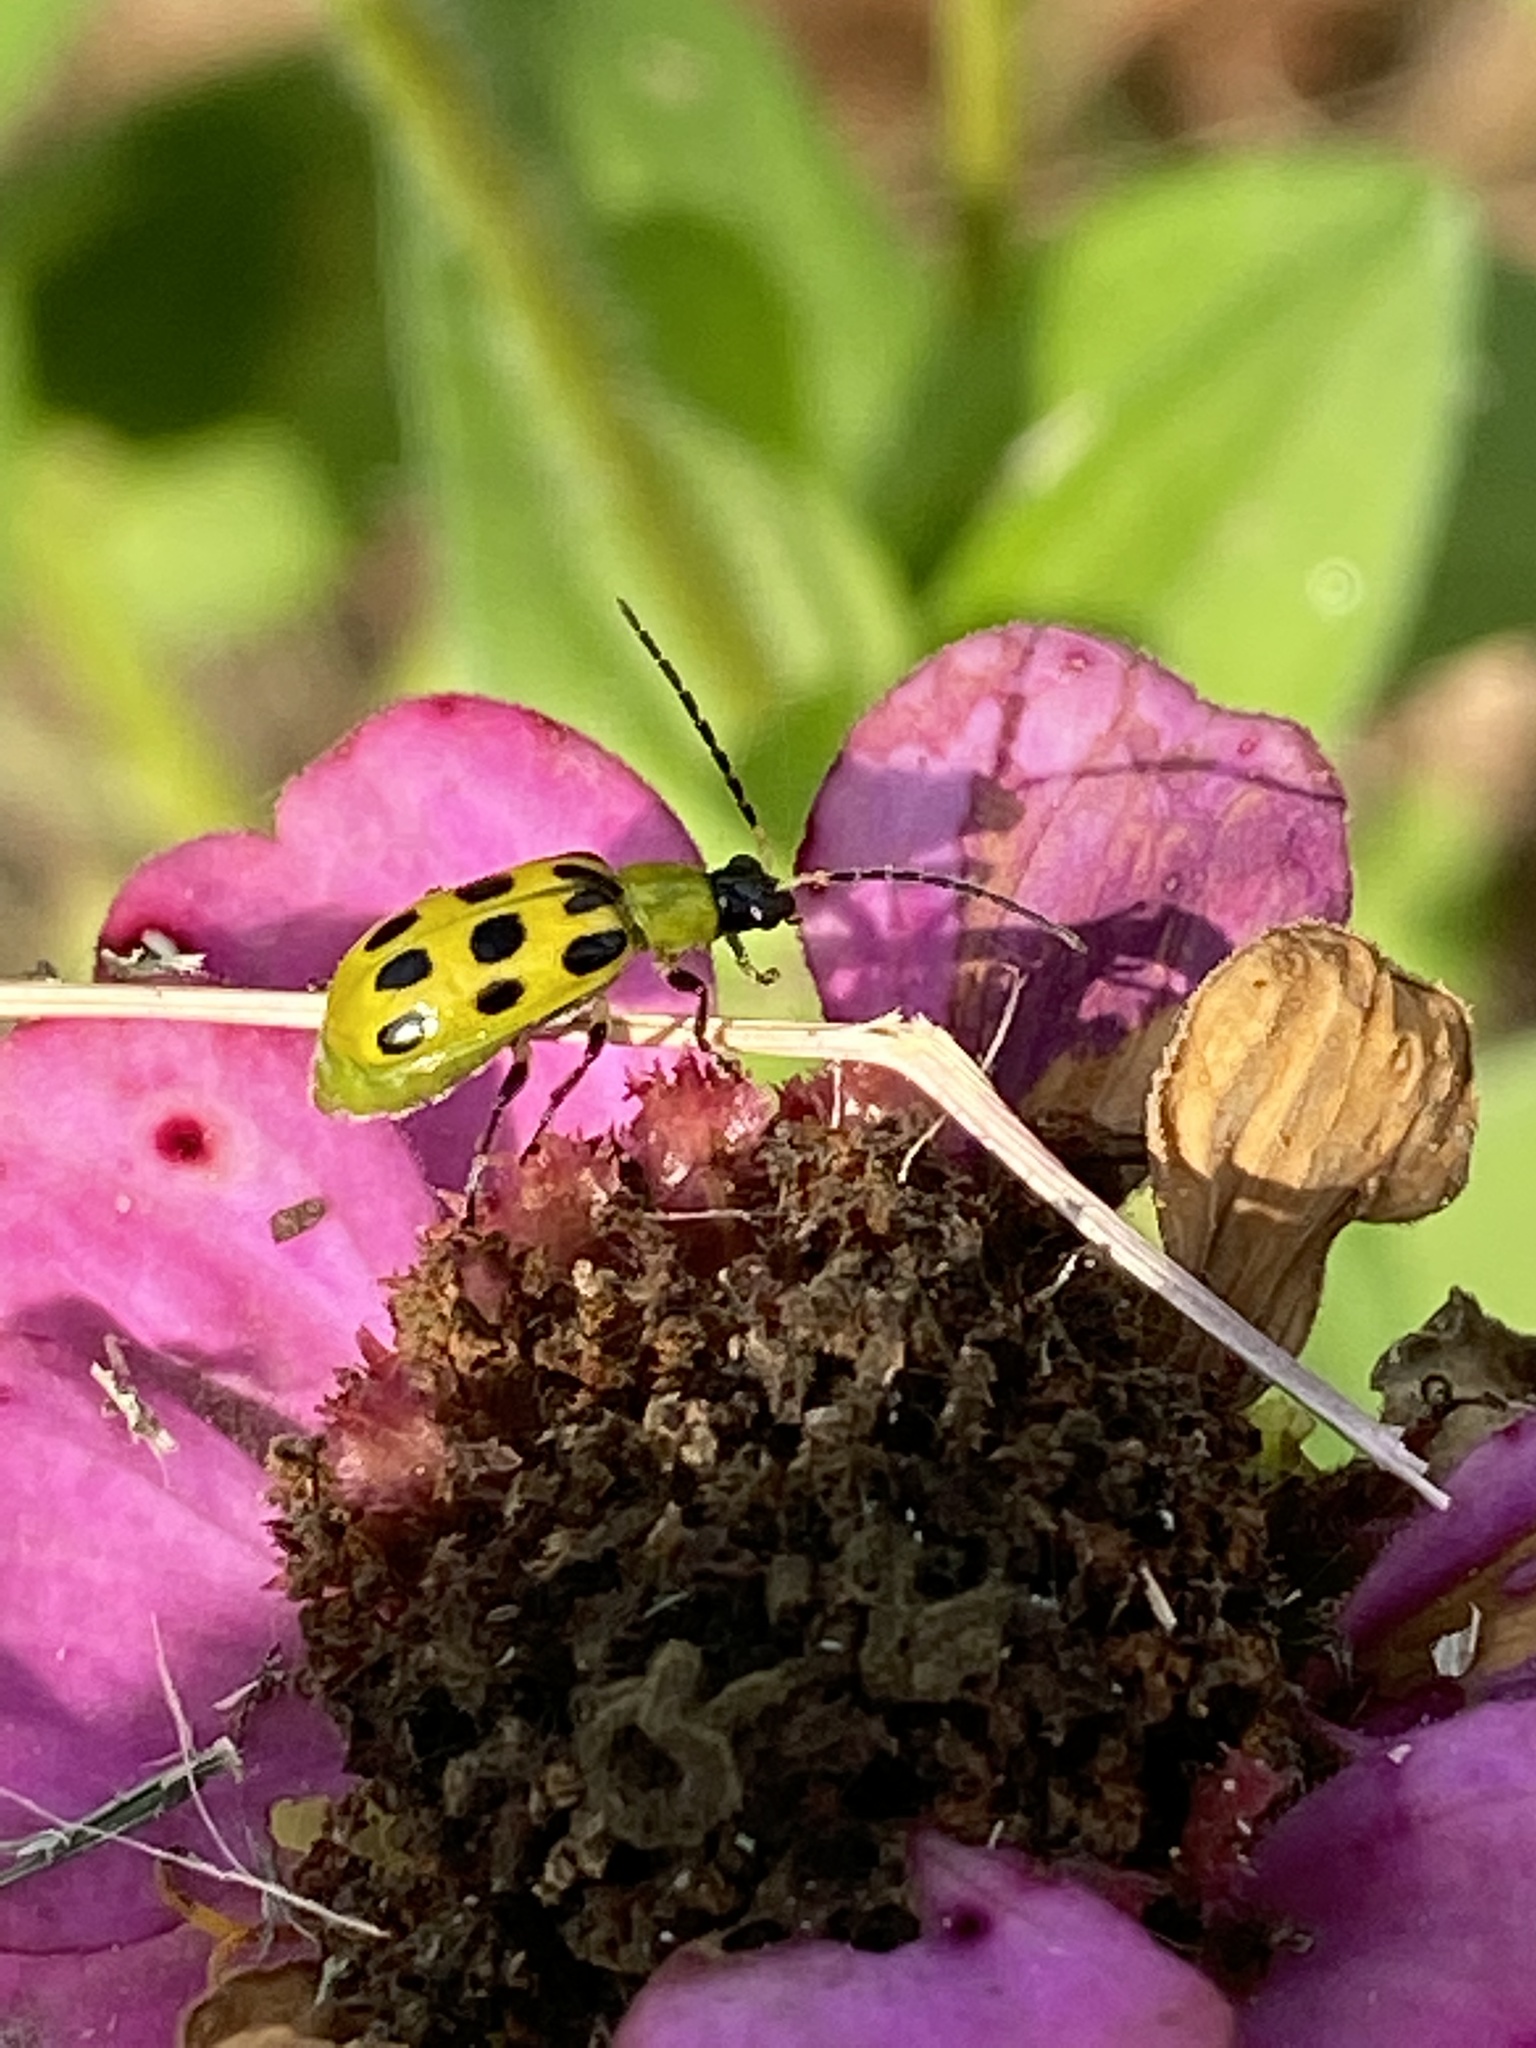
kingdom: Animalia
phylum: Arthropoda
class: Insecta
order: Coleoptera
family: Chrysomelidae
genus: Diabrotica
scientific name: Diabrotica undecimpunctata
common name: Spotted cucumber beetle
